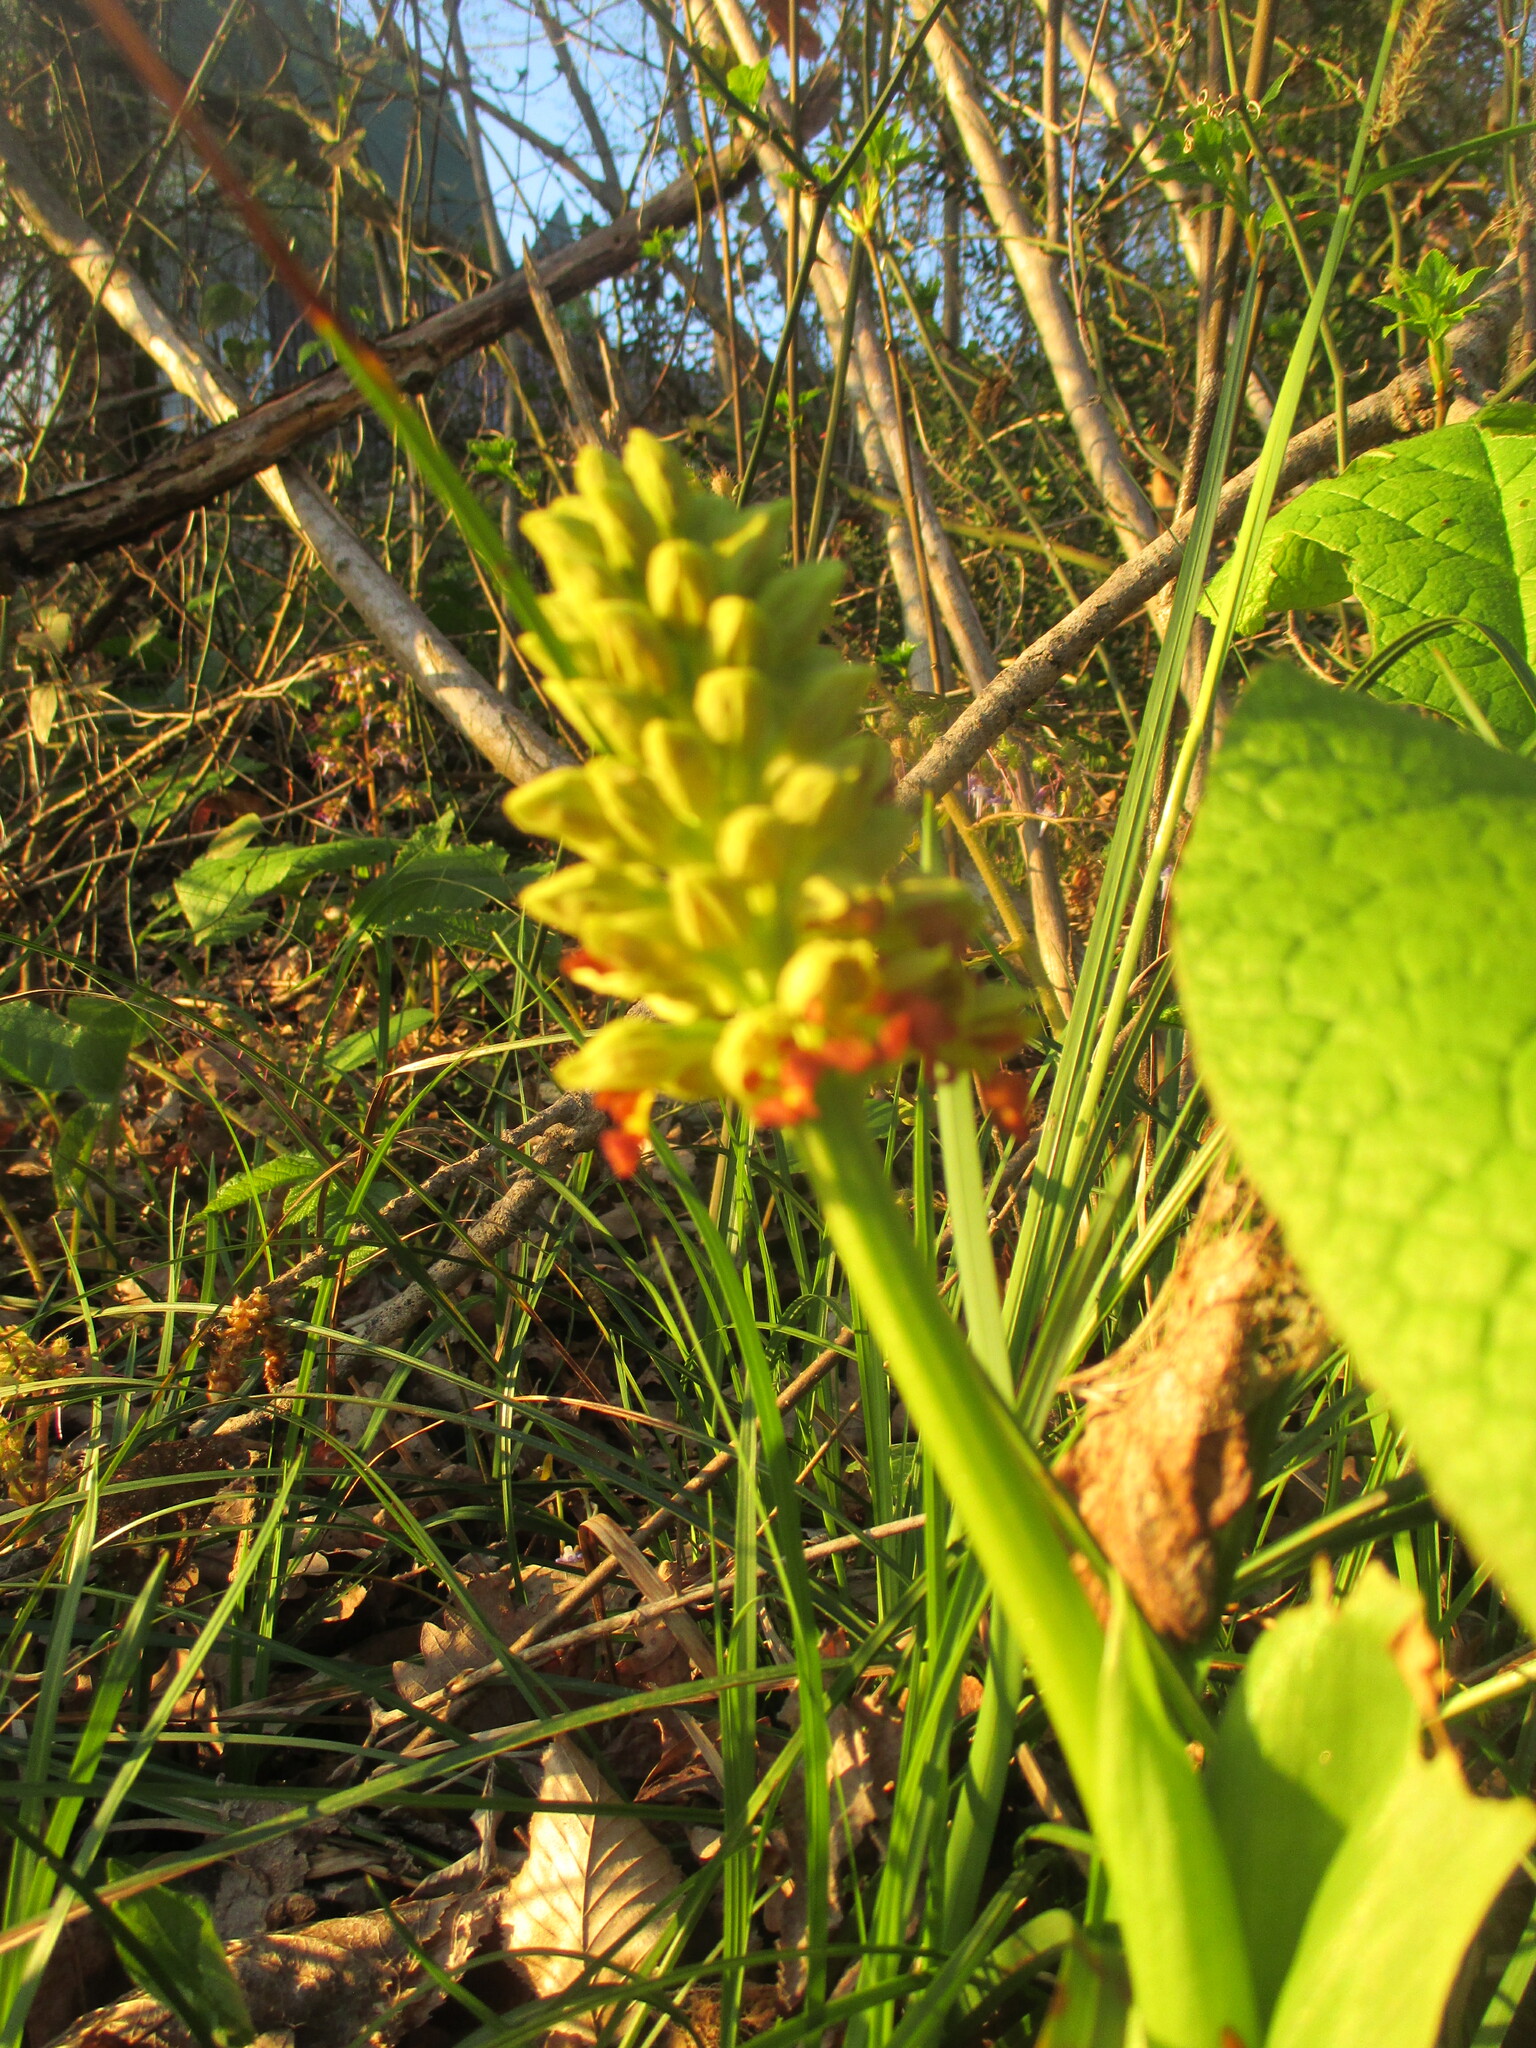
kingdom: Plantae
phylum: Tracheophyta
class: Liliopsida
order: Asparagales
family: Orchidaceae
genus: Orchis
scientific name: Orchis punctulata
